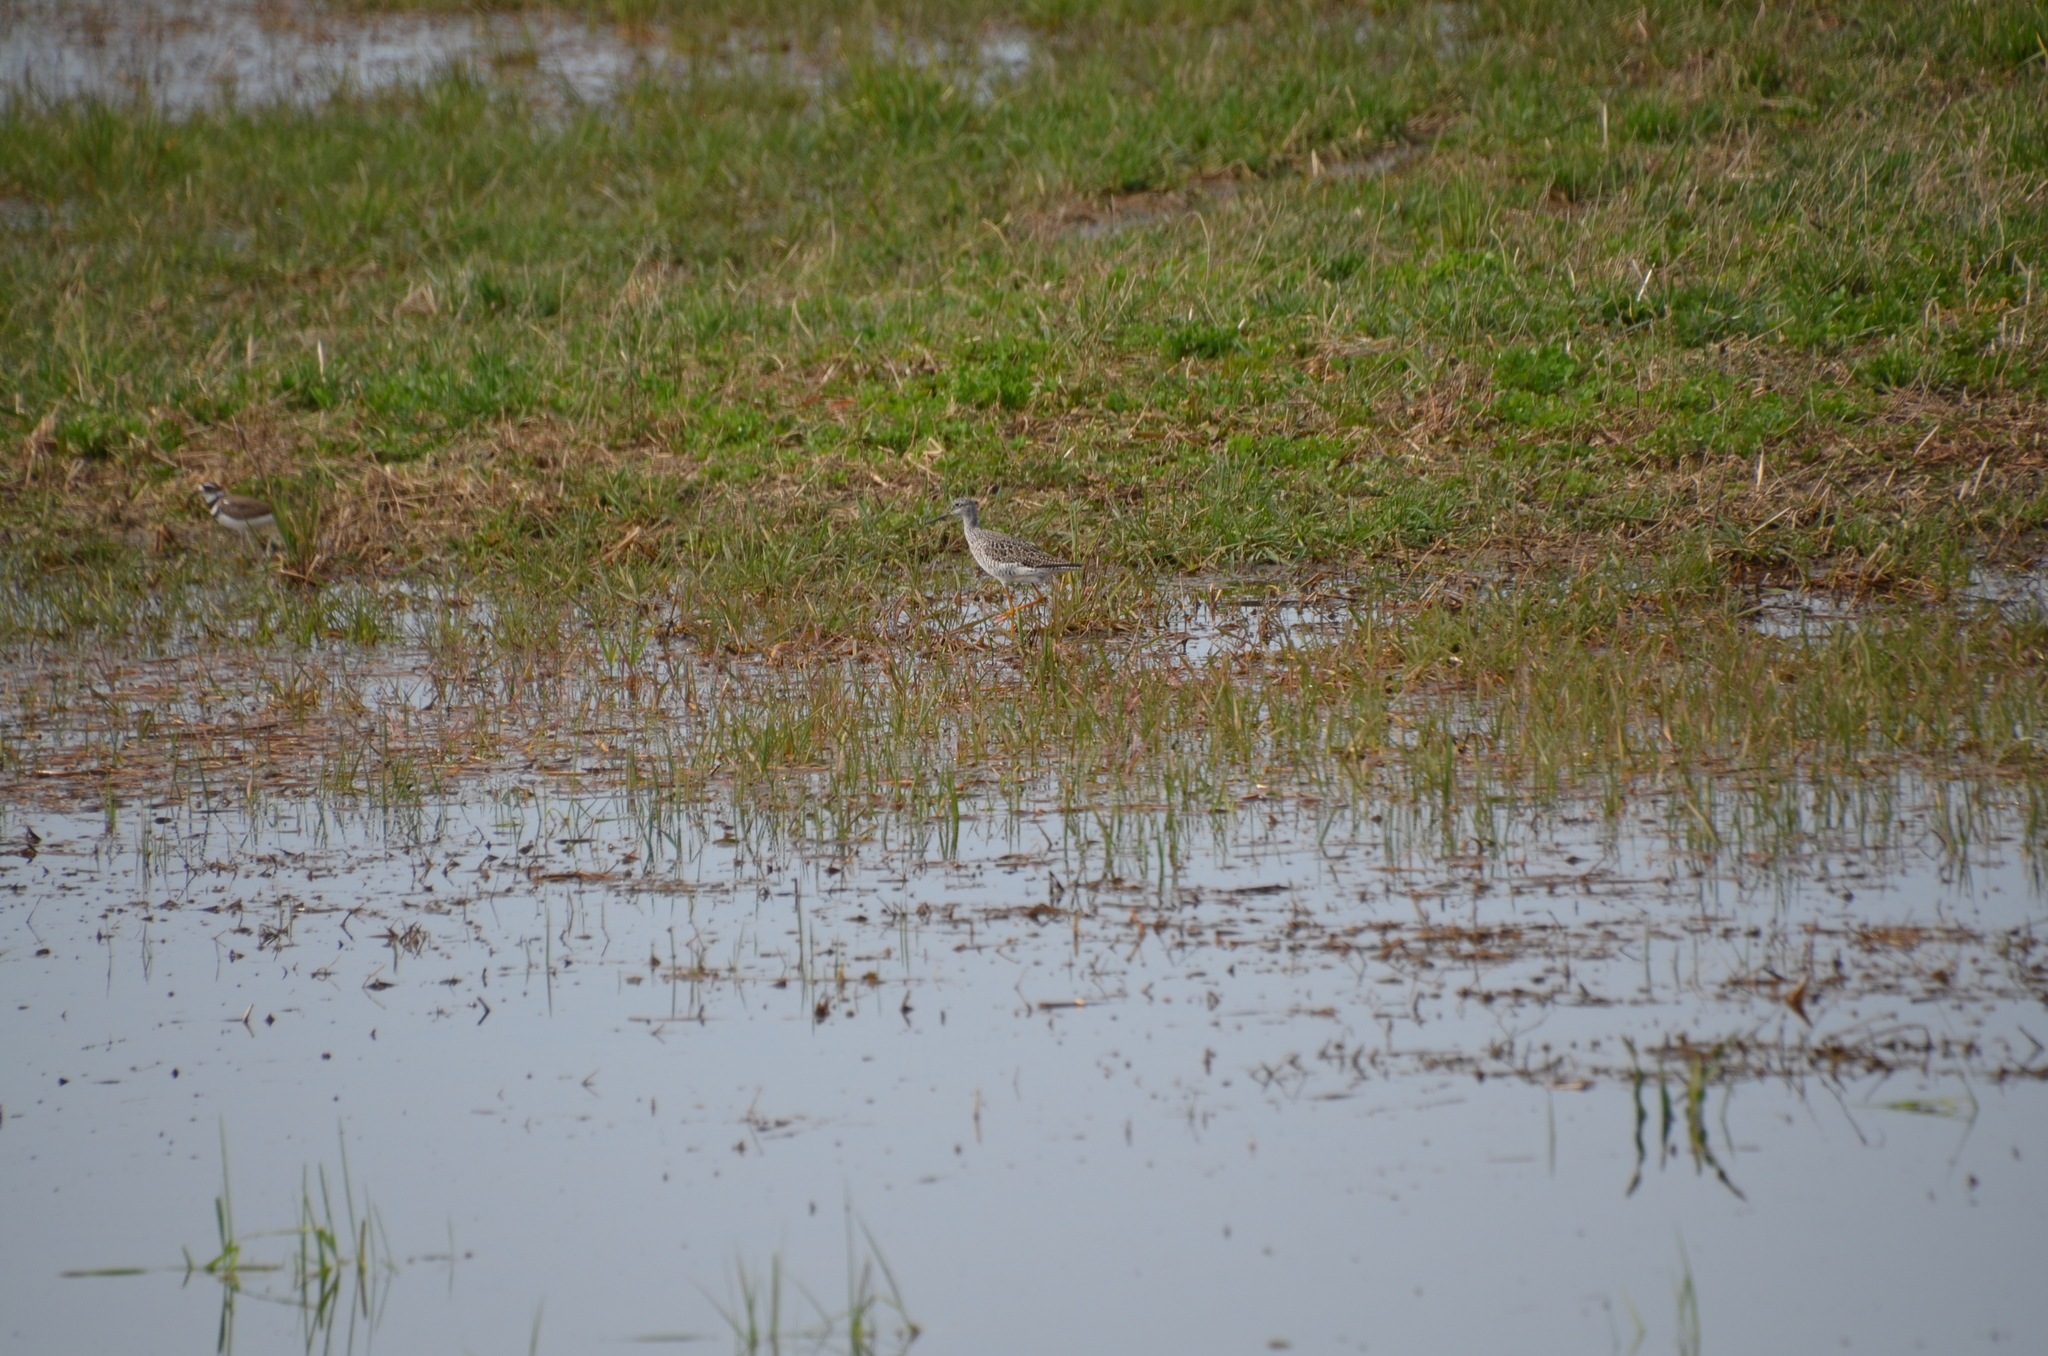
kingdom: Animalia
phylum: Chordata
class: Aves
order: Charadriiformes
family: Scolopacidae
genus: Tringa
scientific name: Tringa melanoleuca
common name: Greater yellowlegs
